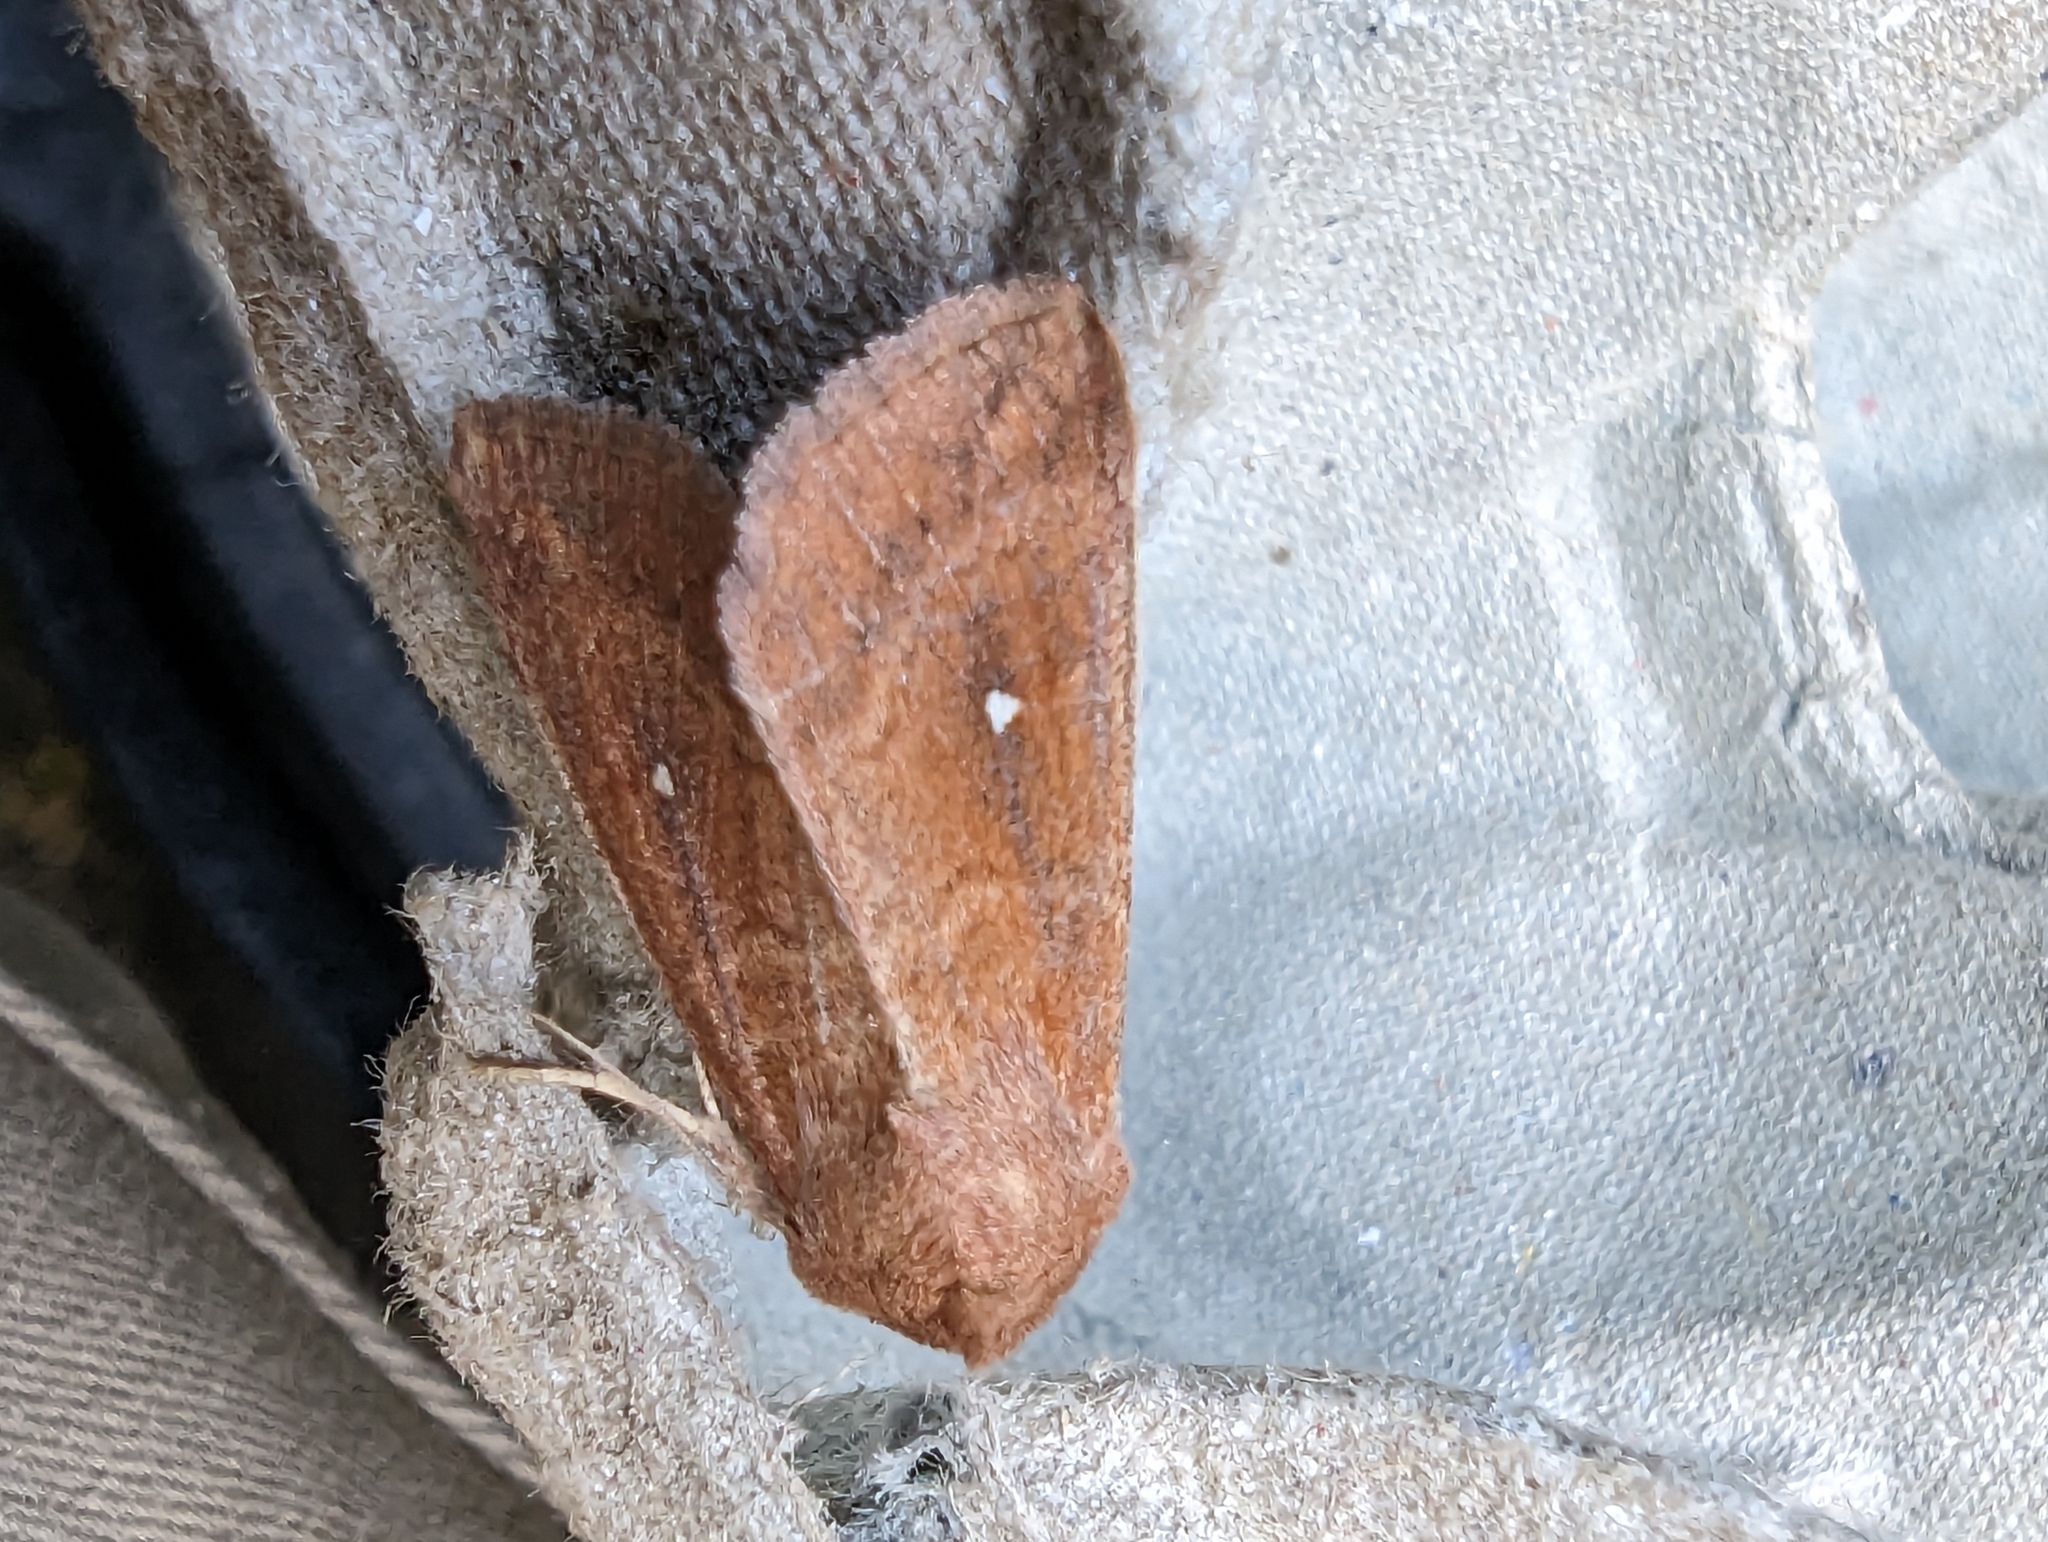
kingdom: Animalia
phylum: Arthropoda
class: Insecta
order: Lepidoptera
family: Noctuidae
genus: Mythimna
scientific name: Mythimna albipuncta
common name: White-point
